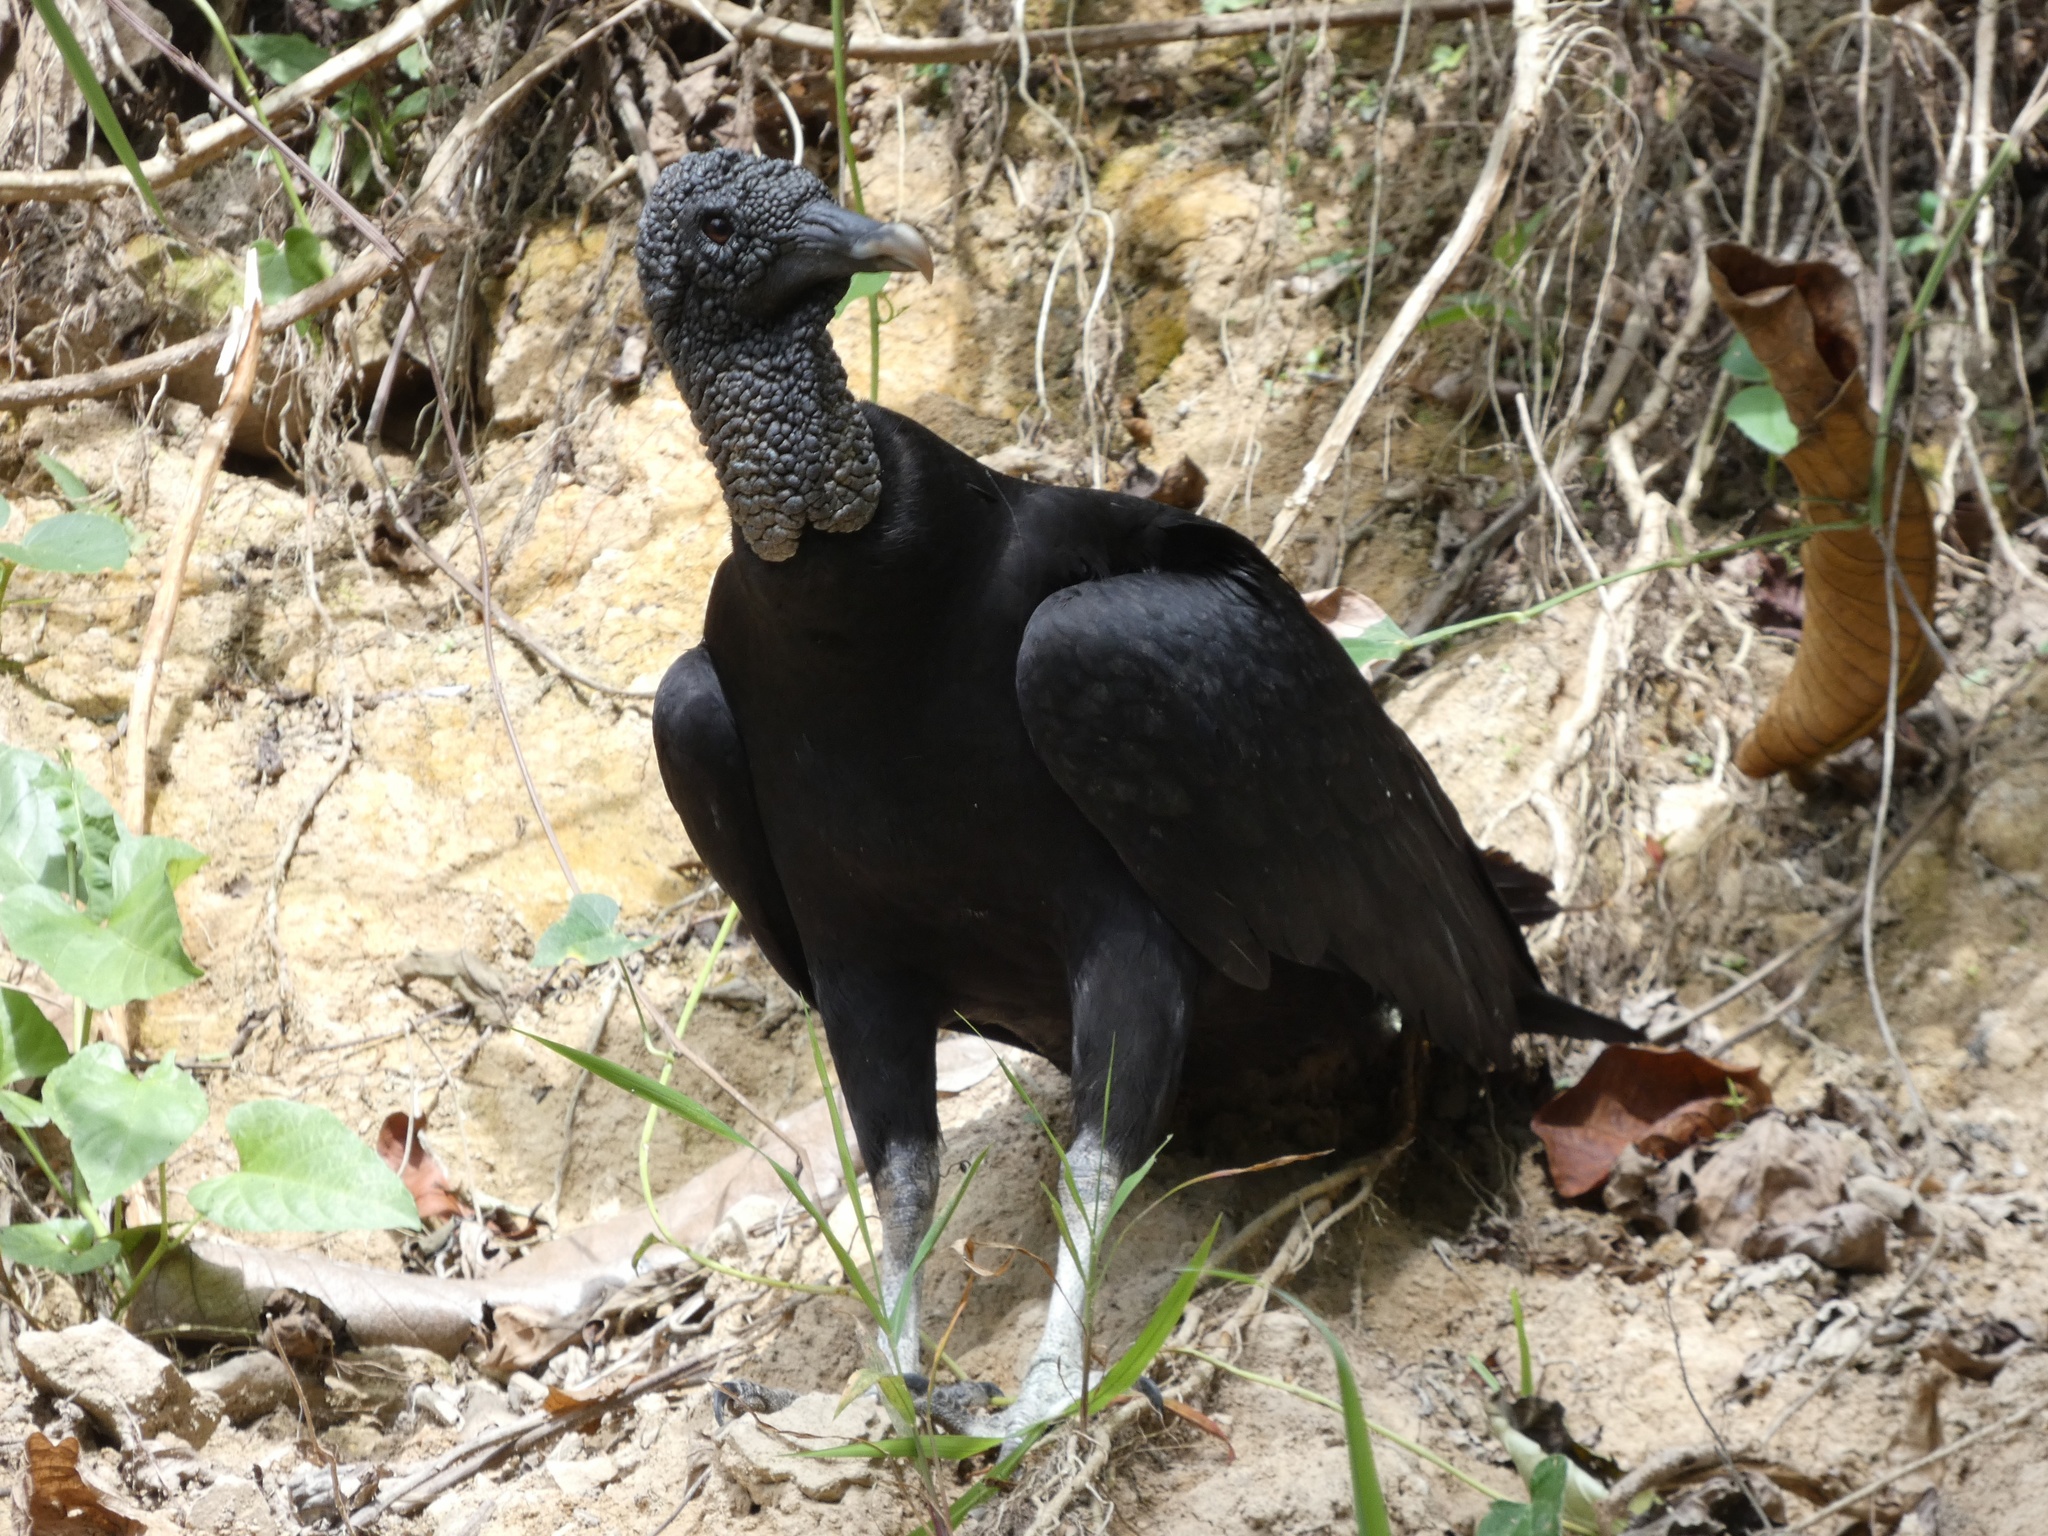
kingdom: Animalia
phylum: Chordata
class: Aves
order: Accipitriformes
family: Cathartidae
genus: Coragyps
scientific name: Coragyps atratus
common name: Black vulture
